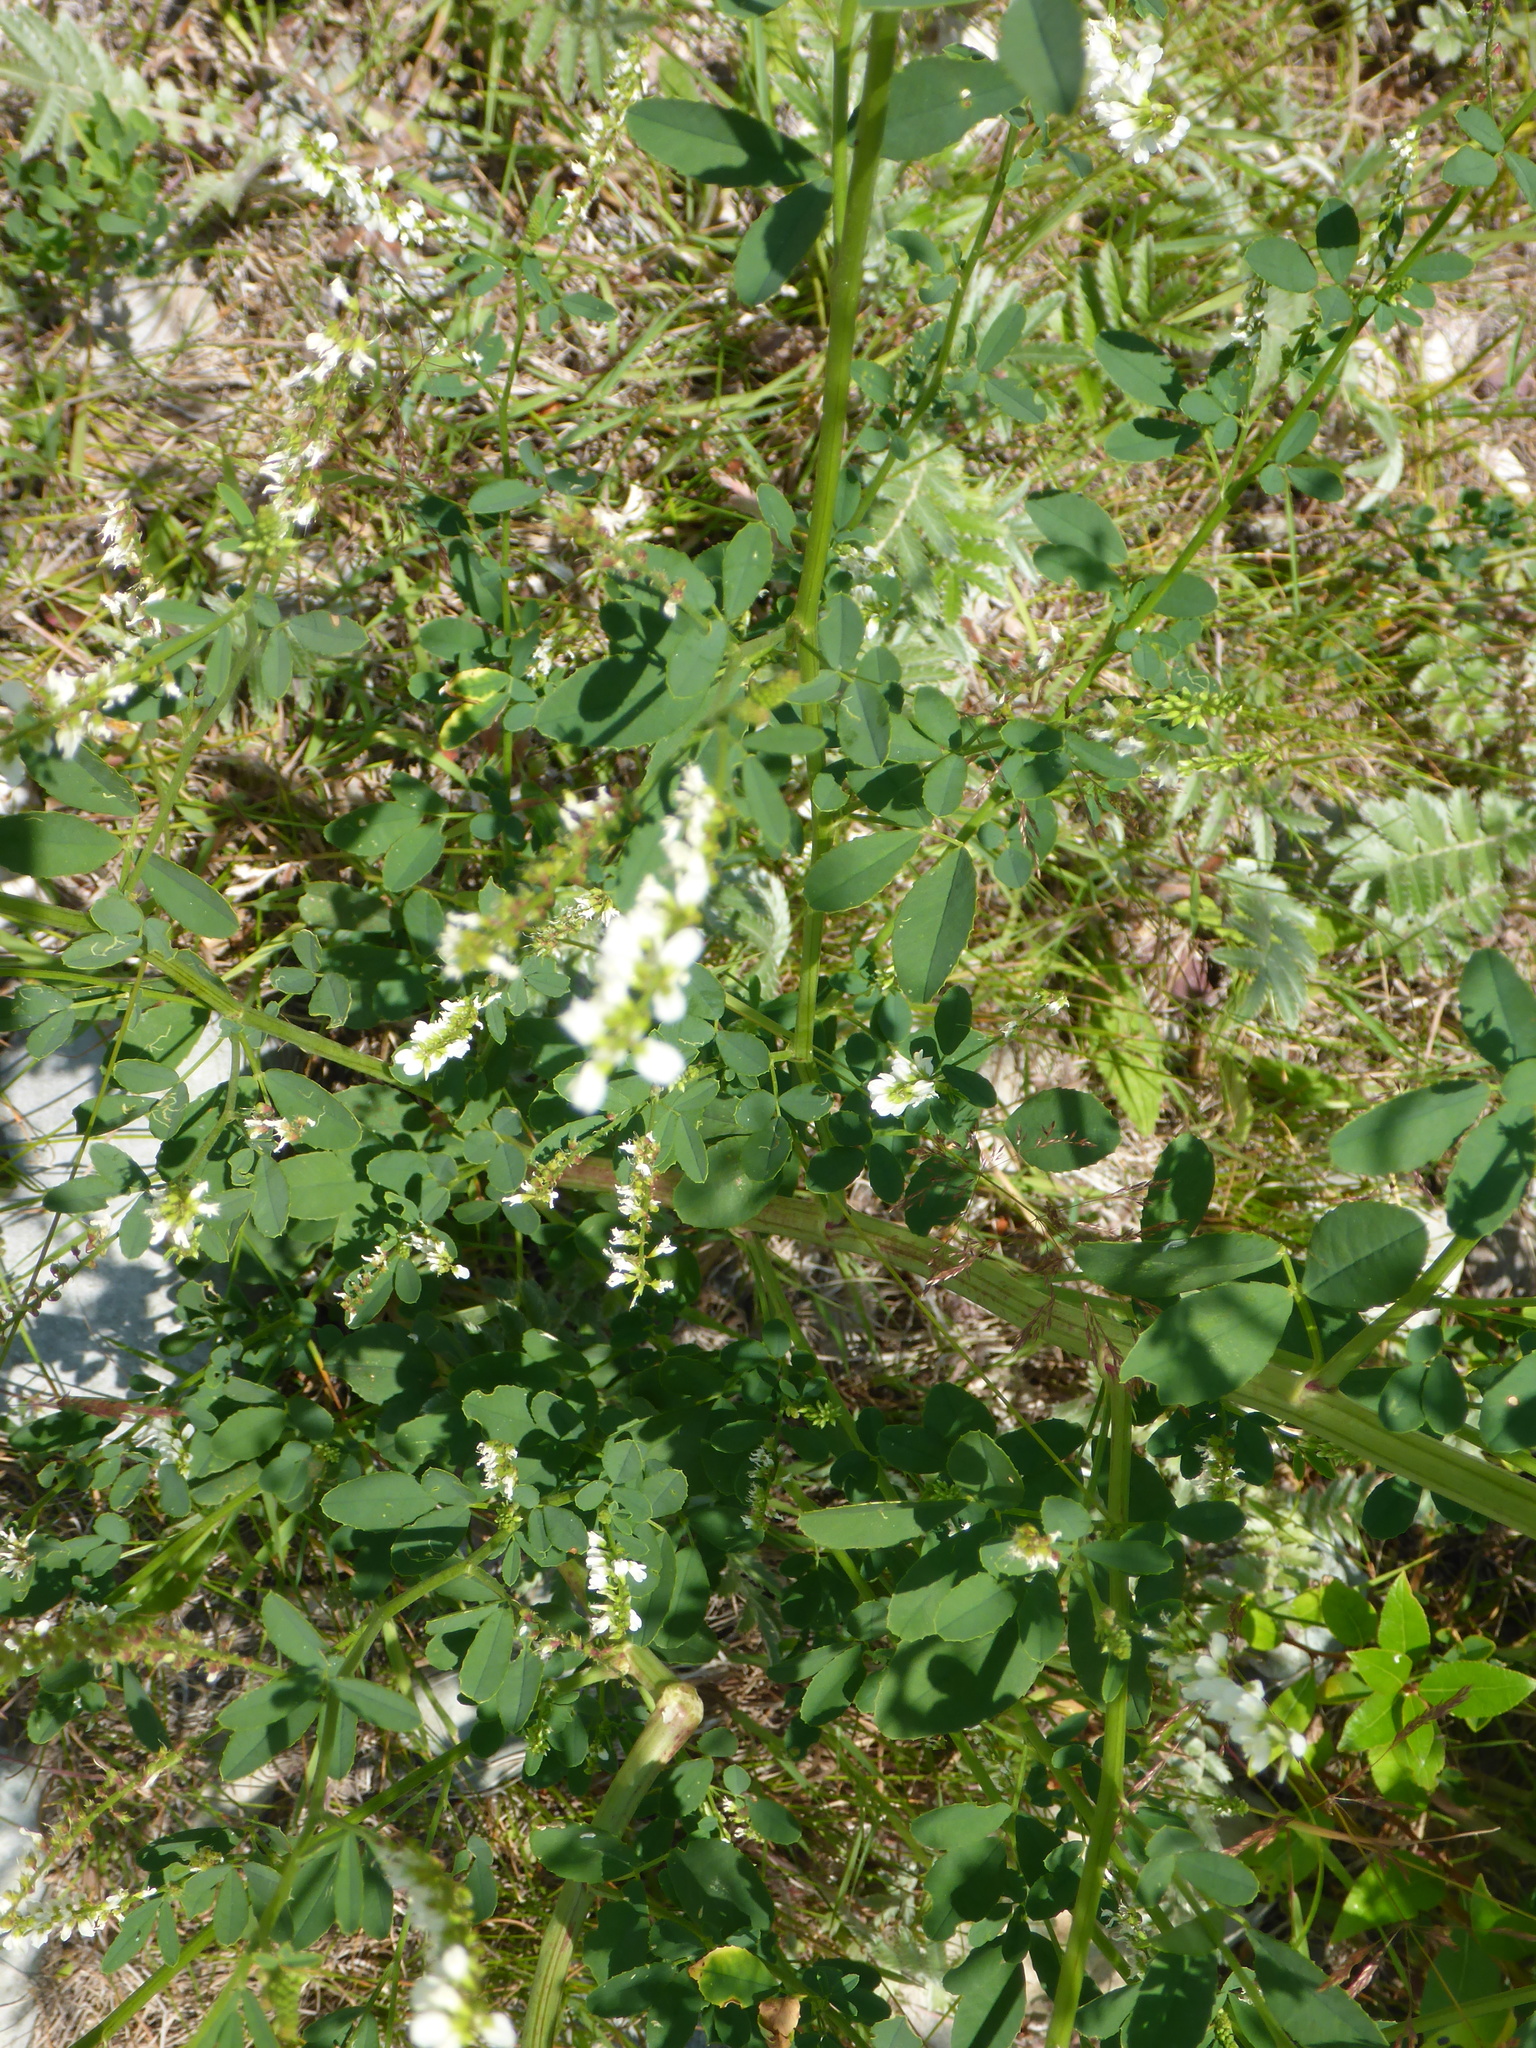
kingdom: Plantae
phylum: Tracheophyta
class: Magnoliopsida
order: Fabales
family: Fabaceae
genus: Melilotus
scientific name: Melilotus albus
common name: White melilot
